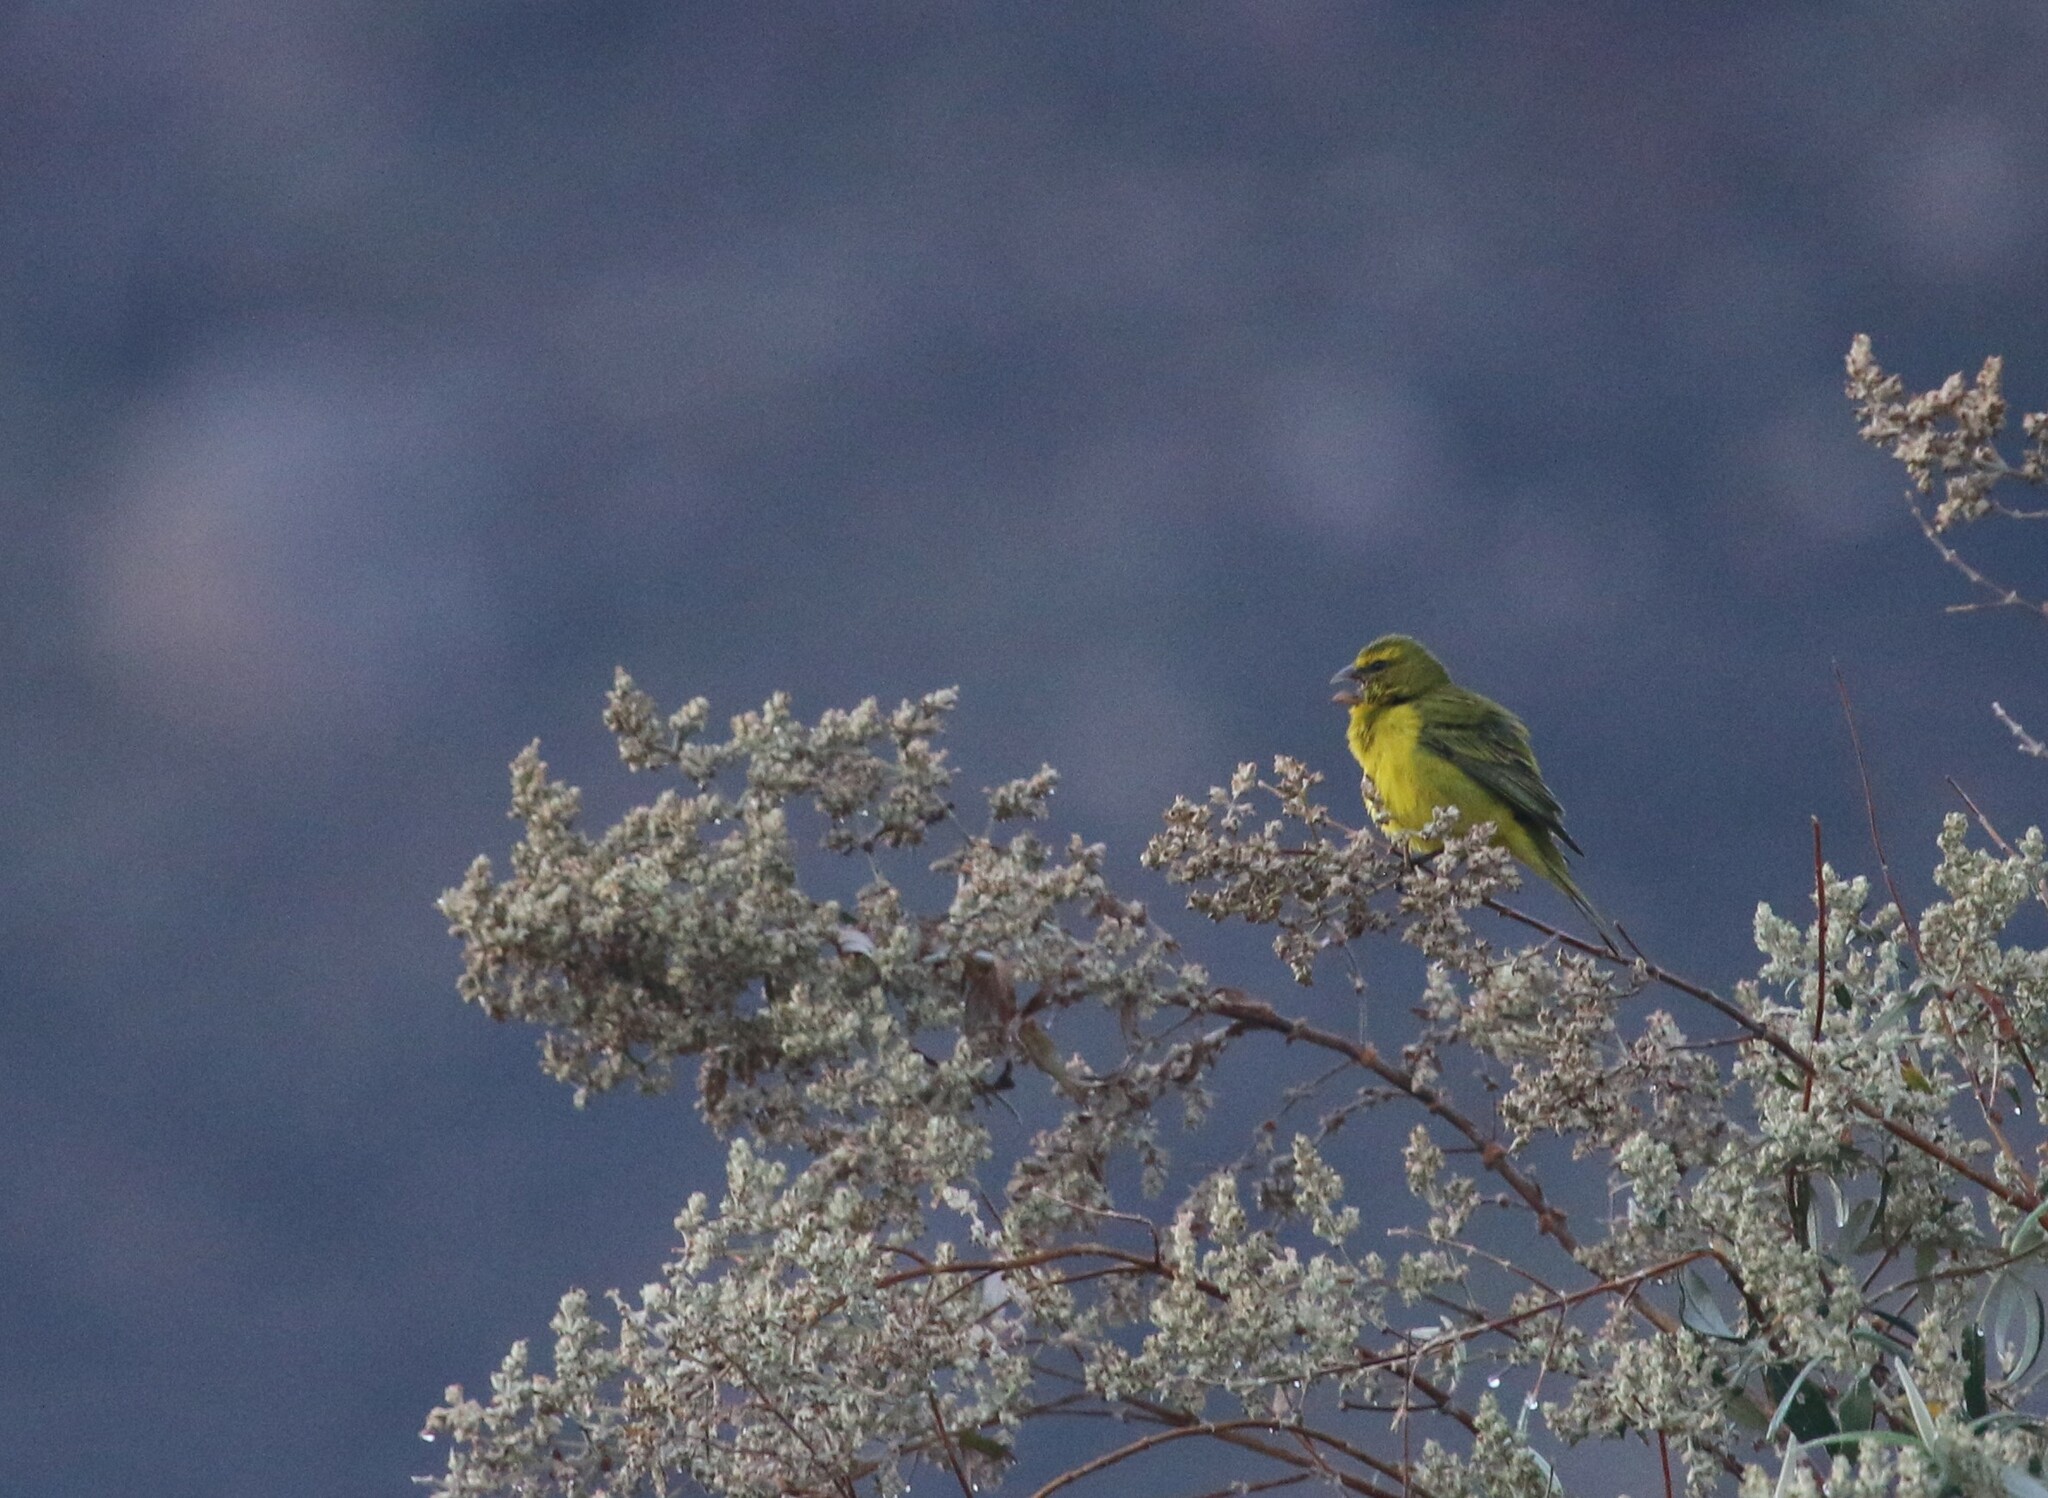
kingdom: Animalia
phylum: Chordata
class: Aves
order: Passeriformes
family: Fringillidae
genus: Crithagra
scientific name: Crithagra sulphurata
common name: Brimstone canary
